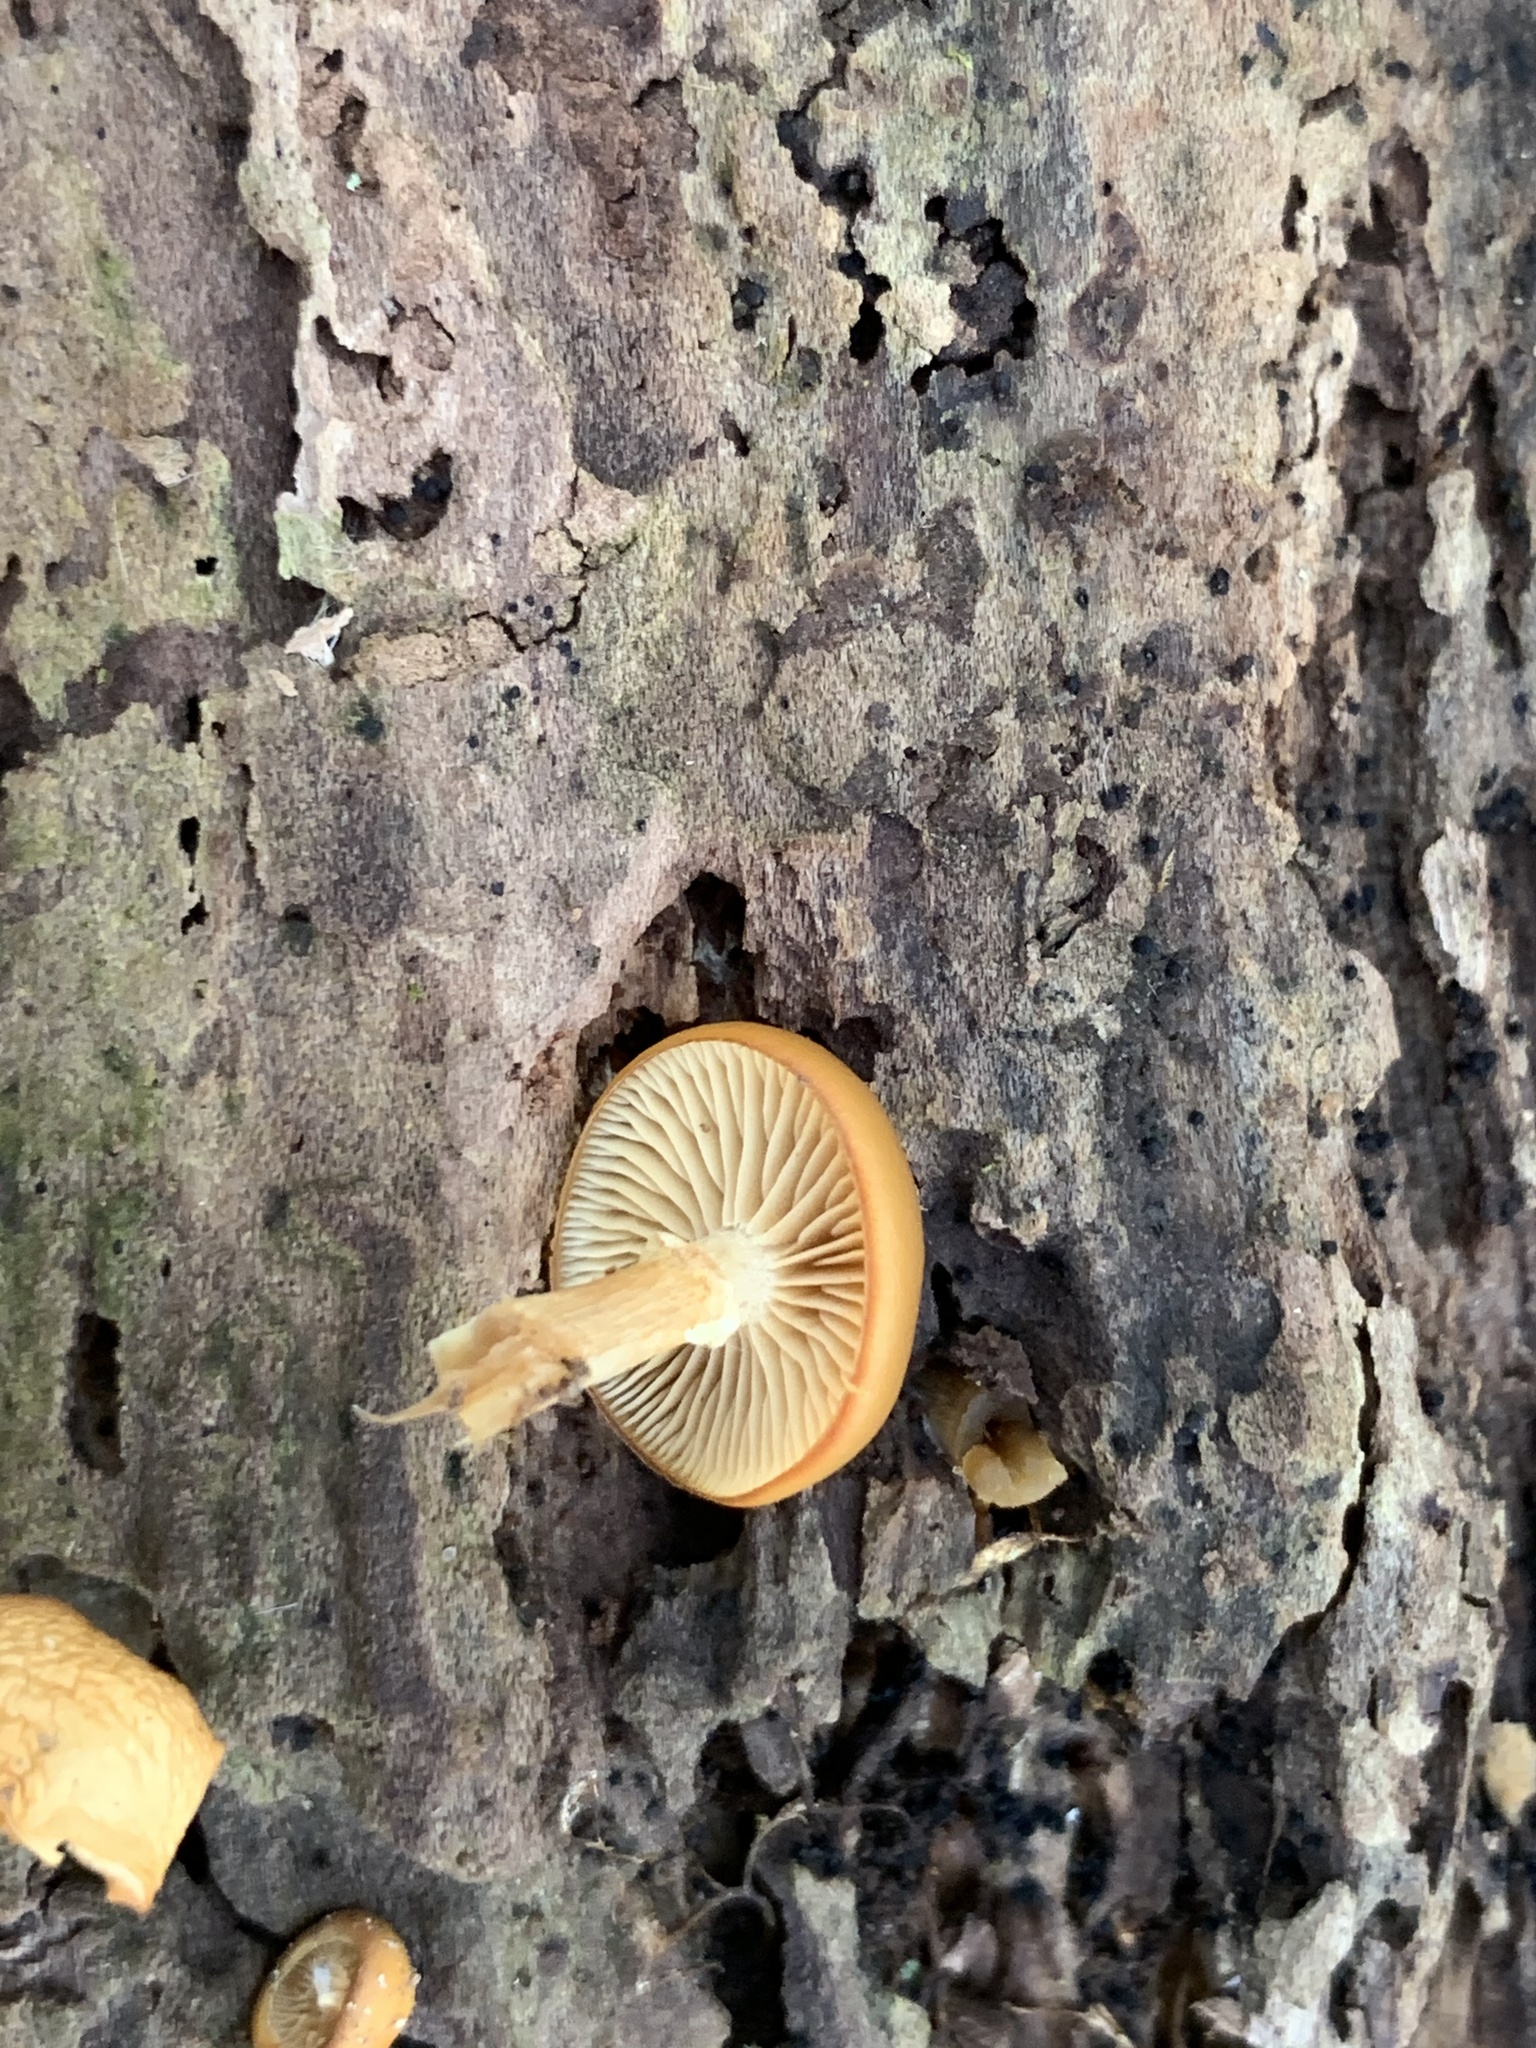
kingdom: Fungi
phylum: Basidiomycota
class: Agaricomycetes
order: Agaricales
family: Hymenogastraceae
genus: Galerina
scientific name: Galerina marginata
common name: Funeral bell
